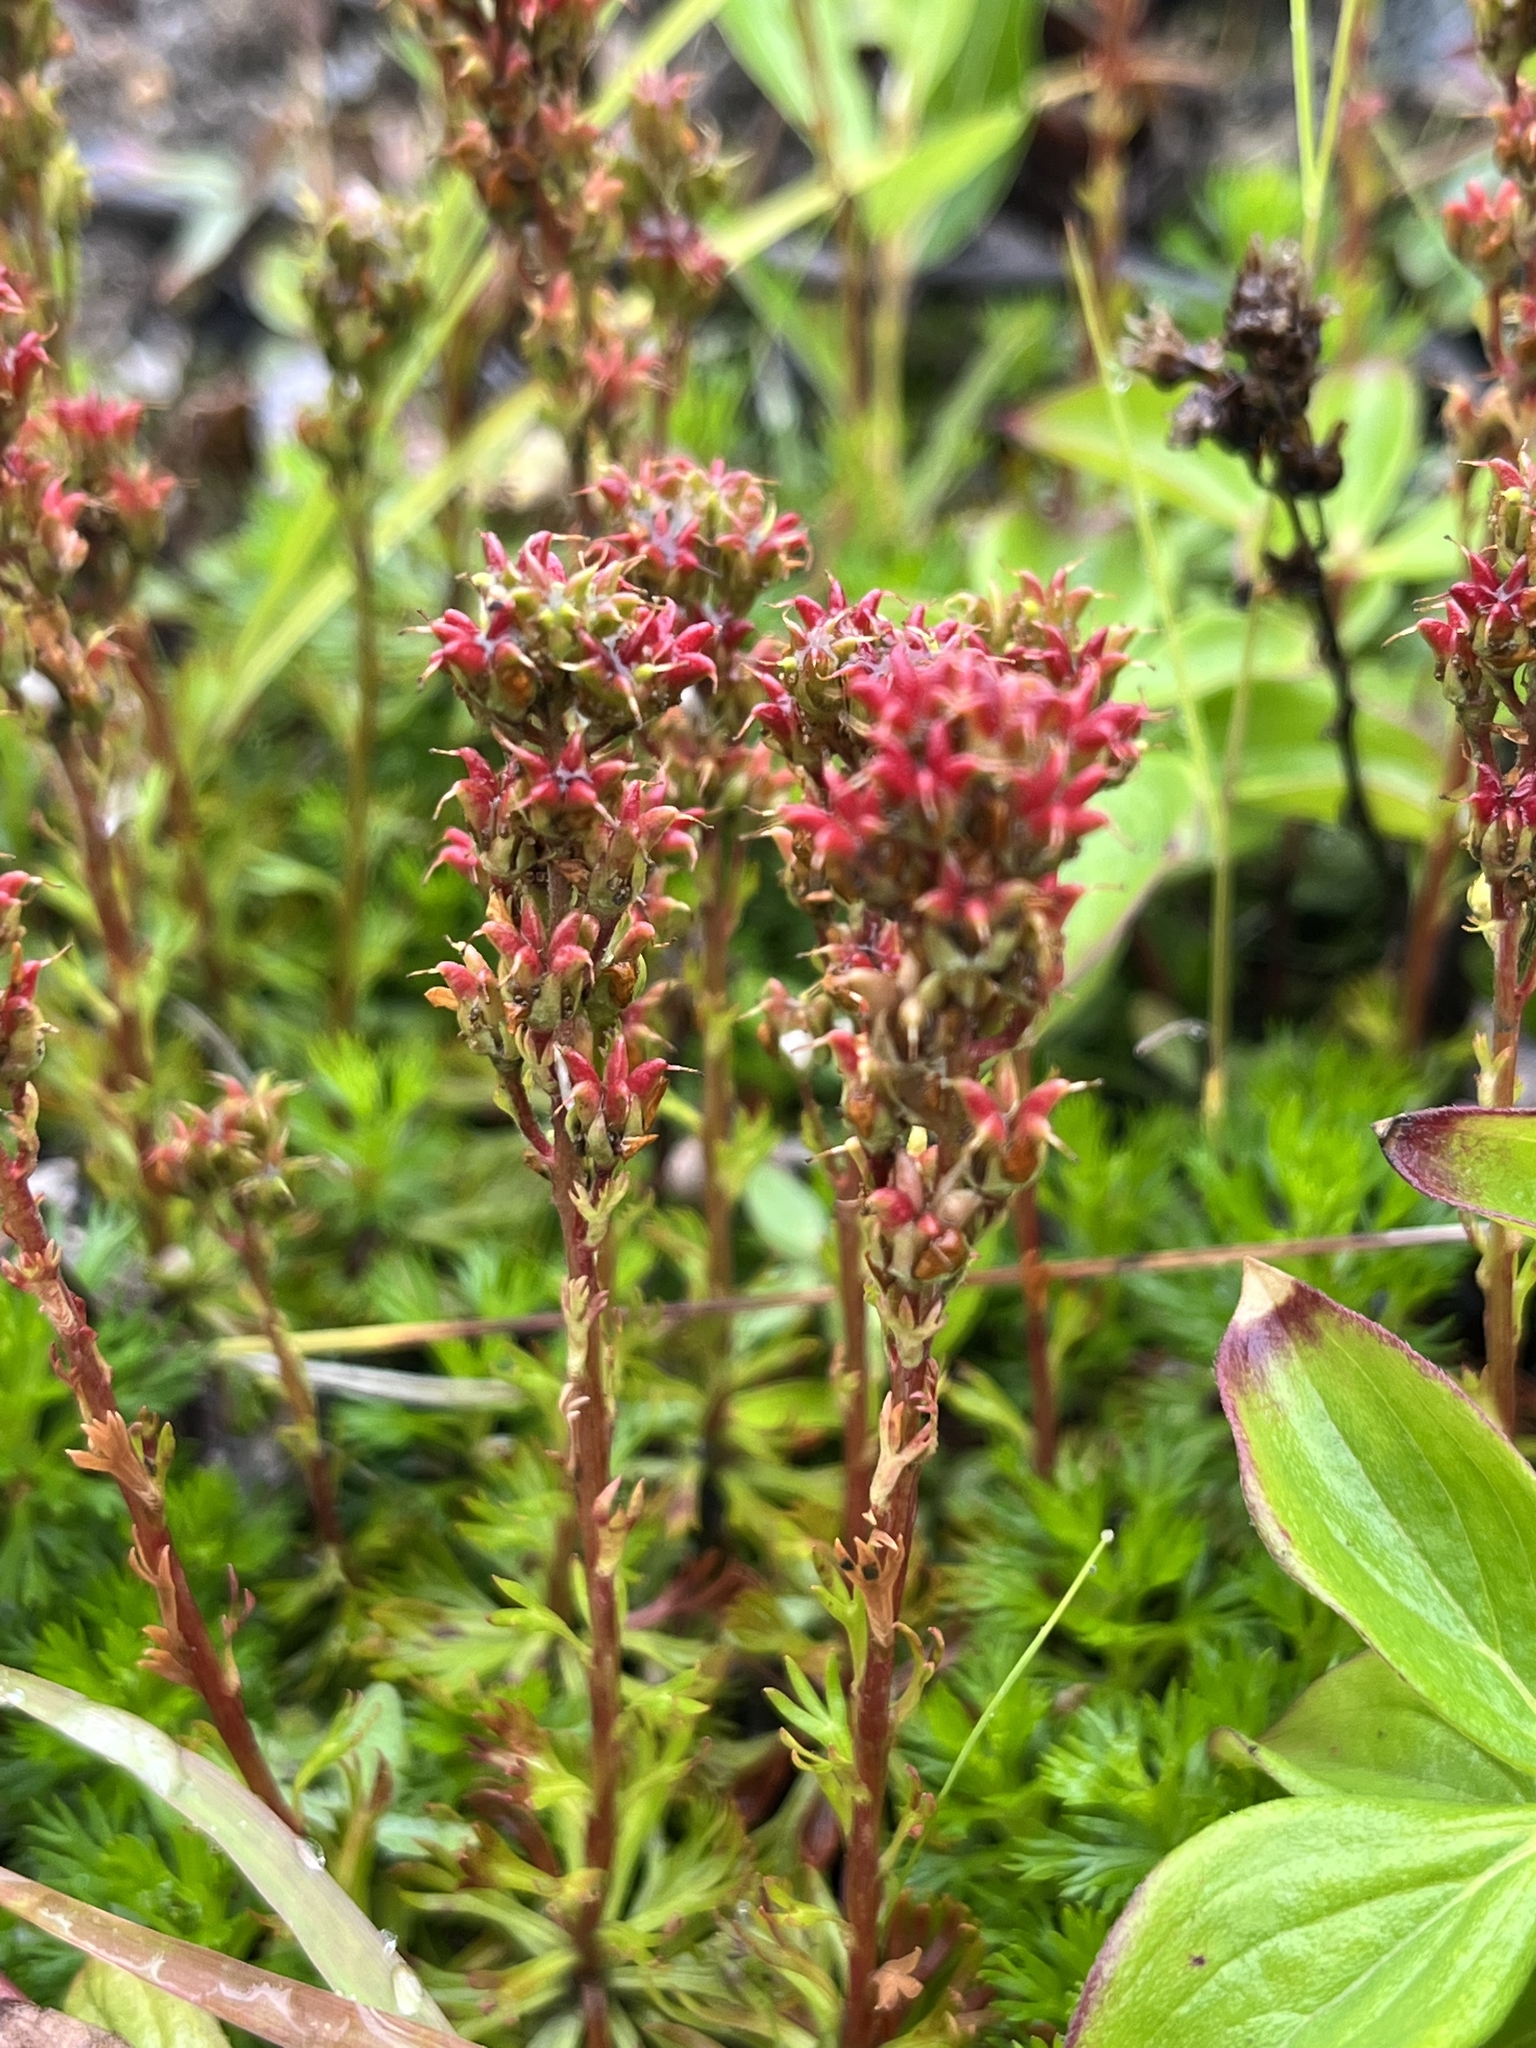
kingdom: Plantae
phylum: Tracheophyta
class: Magnoliopsida
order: Rosales
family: Rosaceae
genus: Luetkea
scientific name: Luetkea pectinata
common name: Partridgefoot
